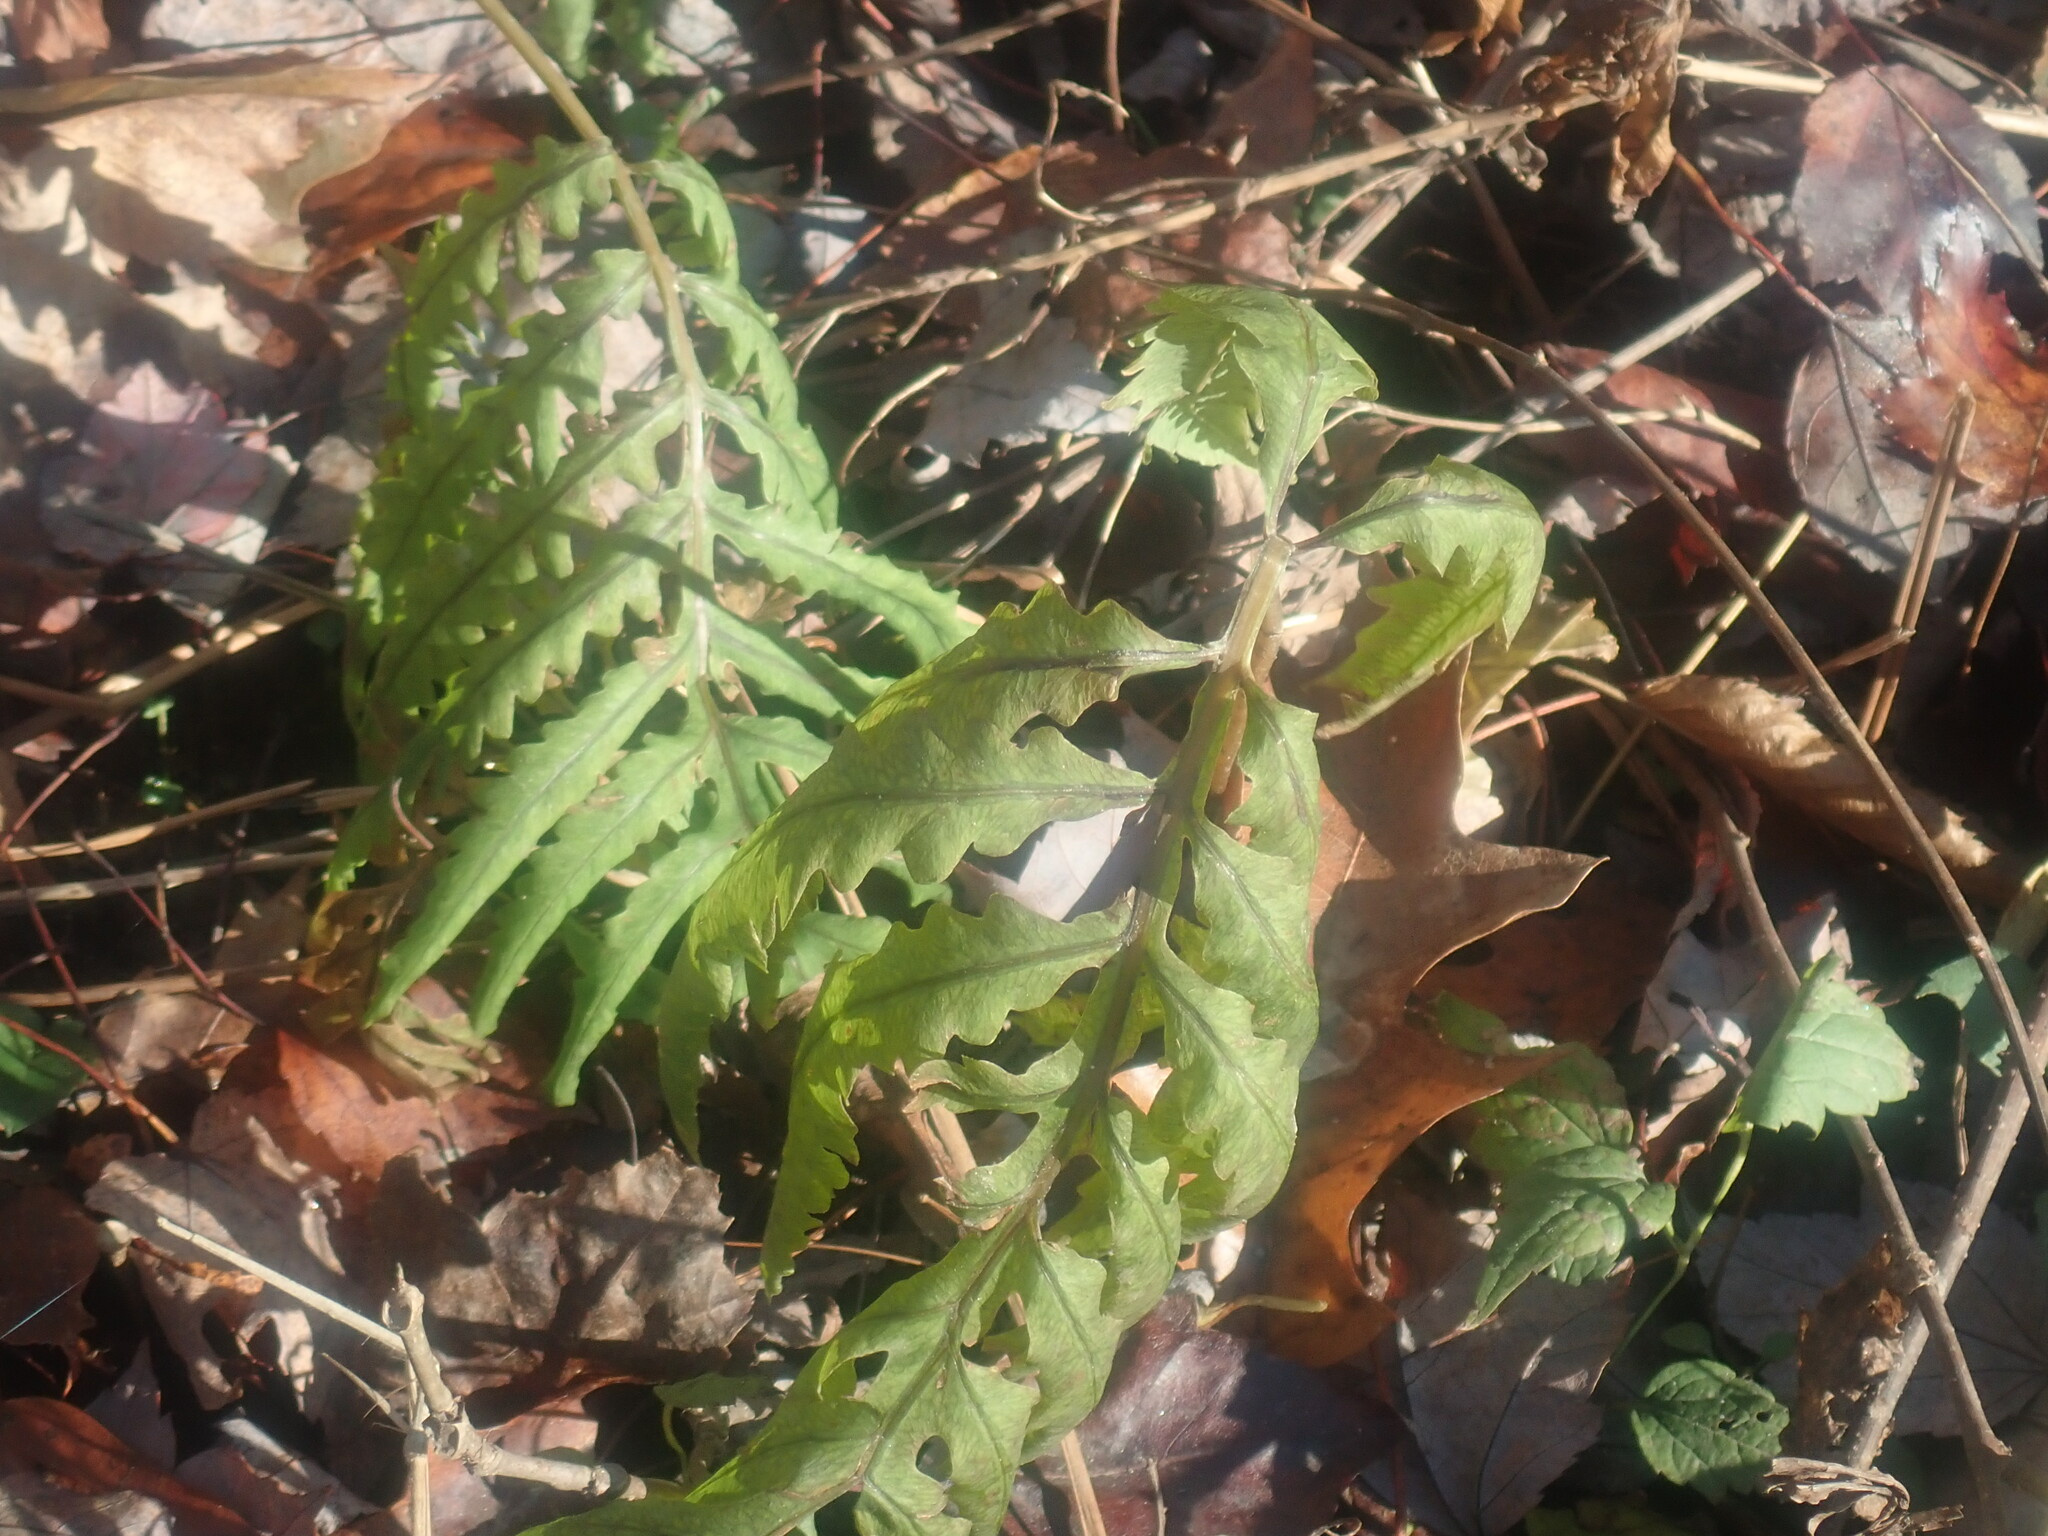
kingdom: Plantae
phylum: Tracheophyta
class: Polypodiopsida
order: Polypodiales
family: Onocleaceae
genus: Onoclea
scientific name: Onoclea sensibilis
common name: Sensitive fern
